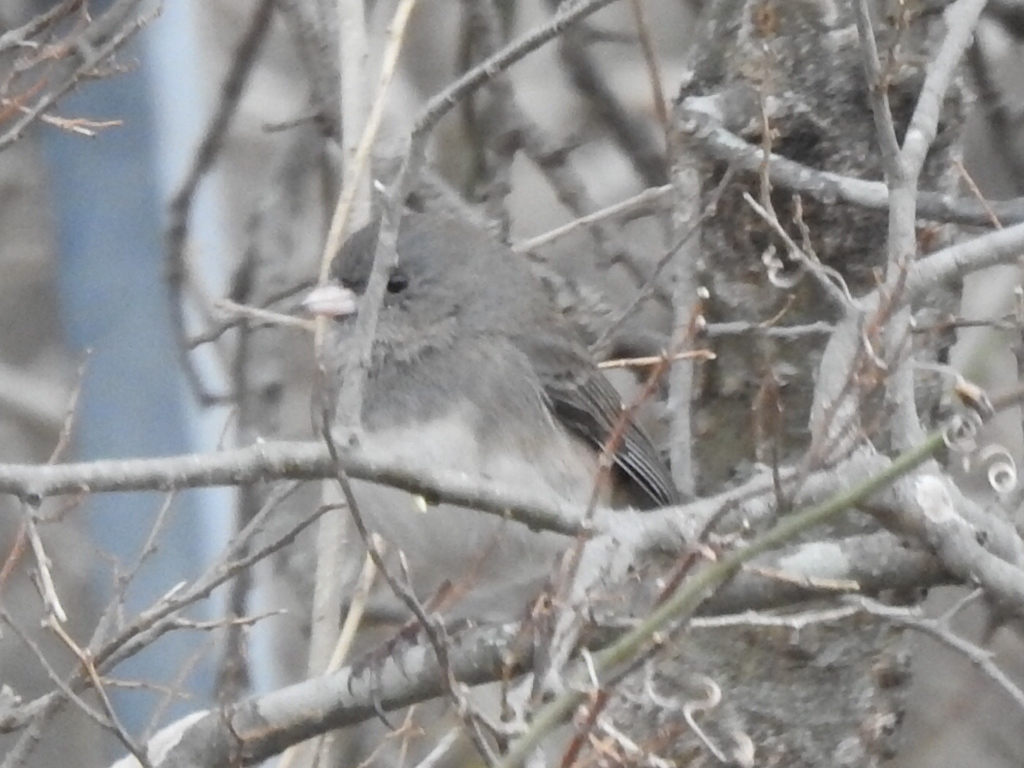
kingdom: Animalia
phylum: Chordata
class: Aves
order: Passeriformes
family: Passerellidae
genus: Junco
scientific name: Junco hyemalis
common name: Dark-eyed junco
